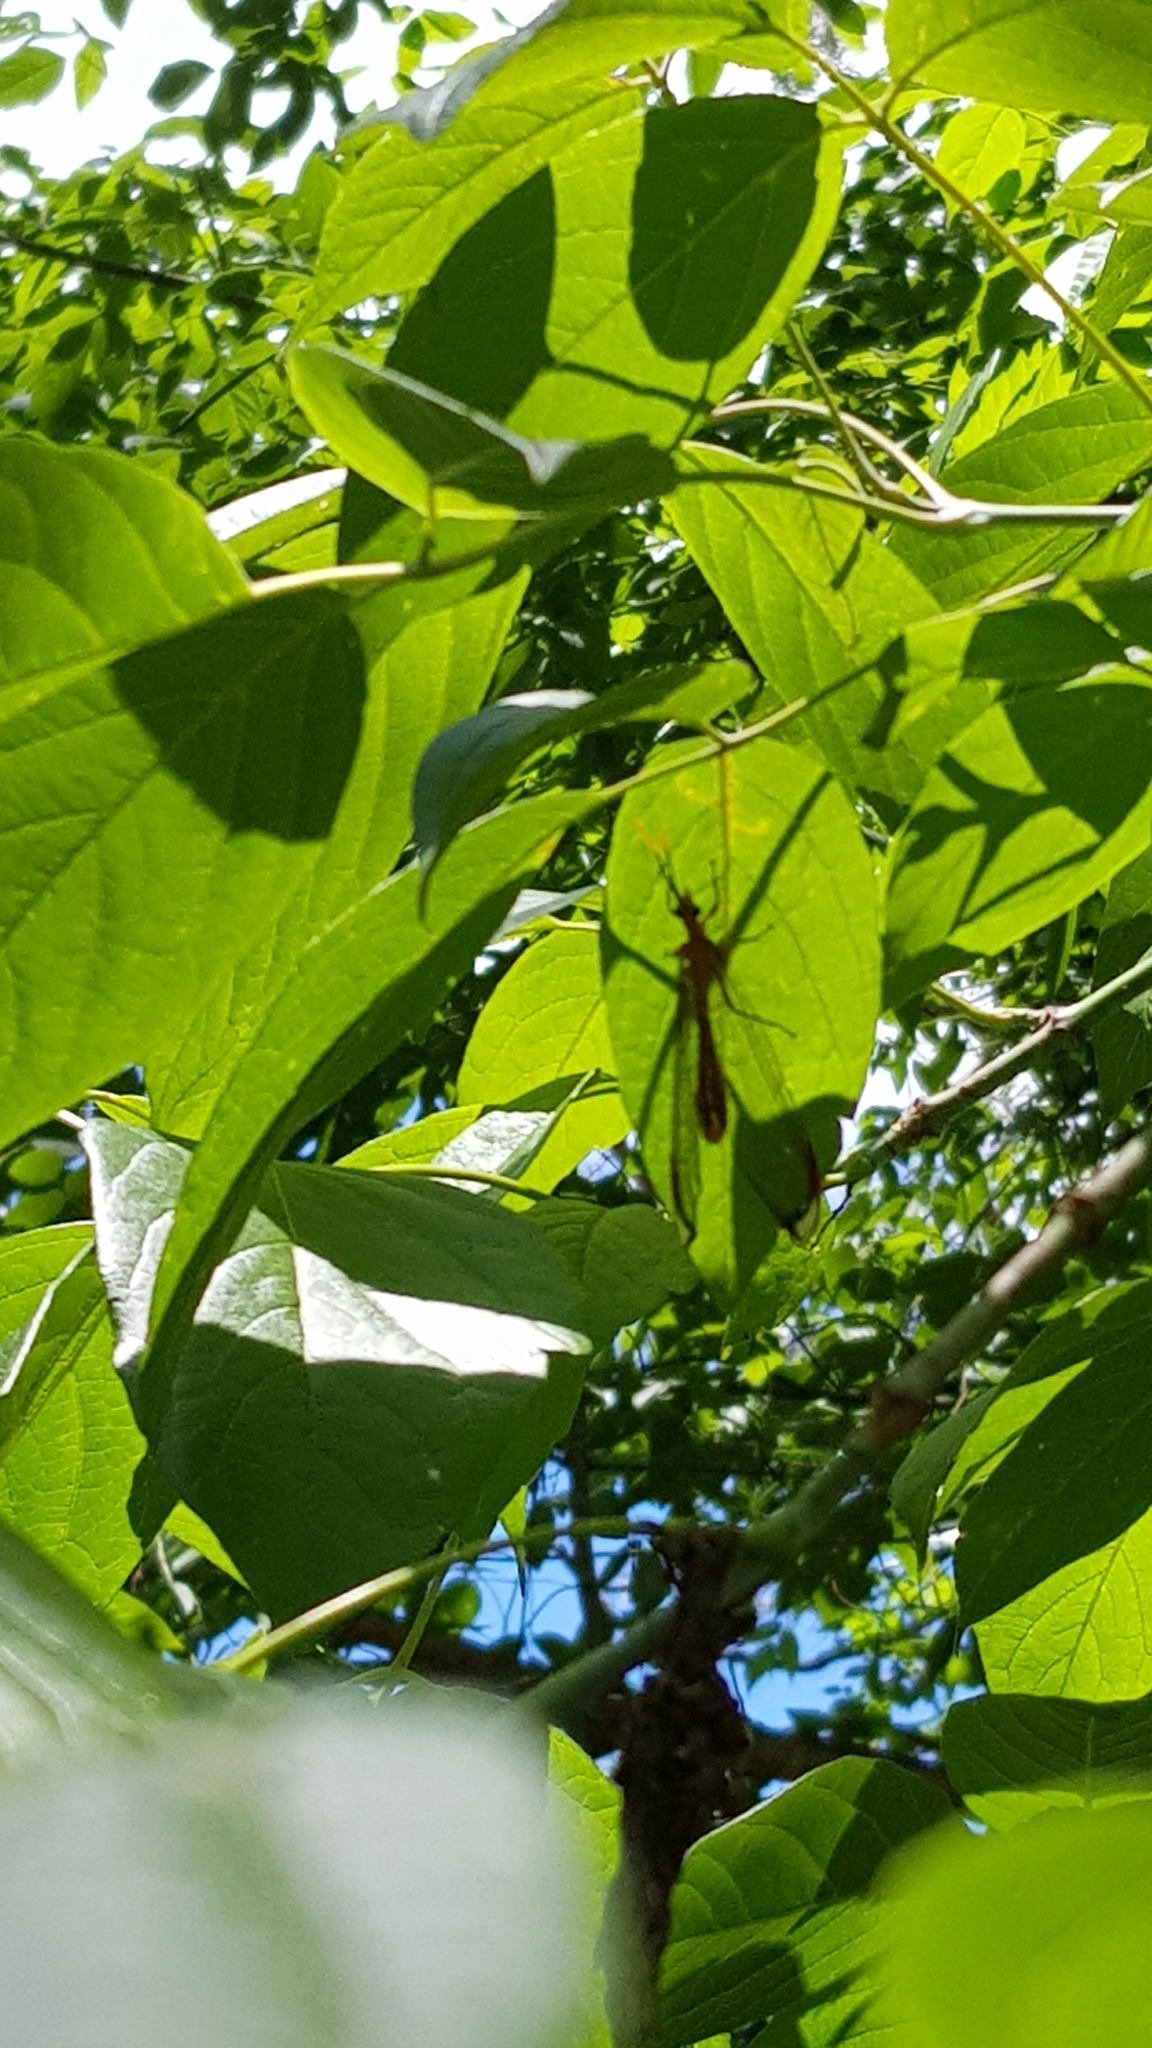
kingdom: Animalia
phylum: Arthropoda
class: Insecta
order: Neuroptera
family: Nymphidae
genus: Nymphes
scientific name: Nymphes myrmeleonoides
